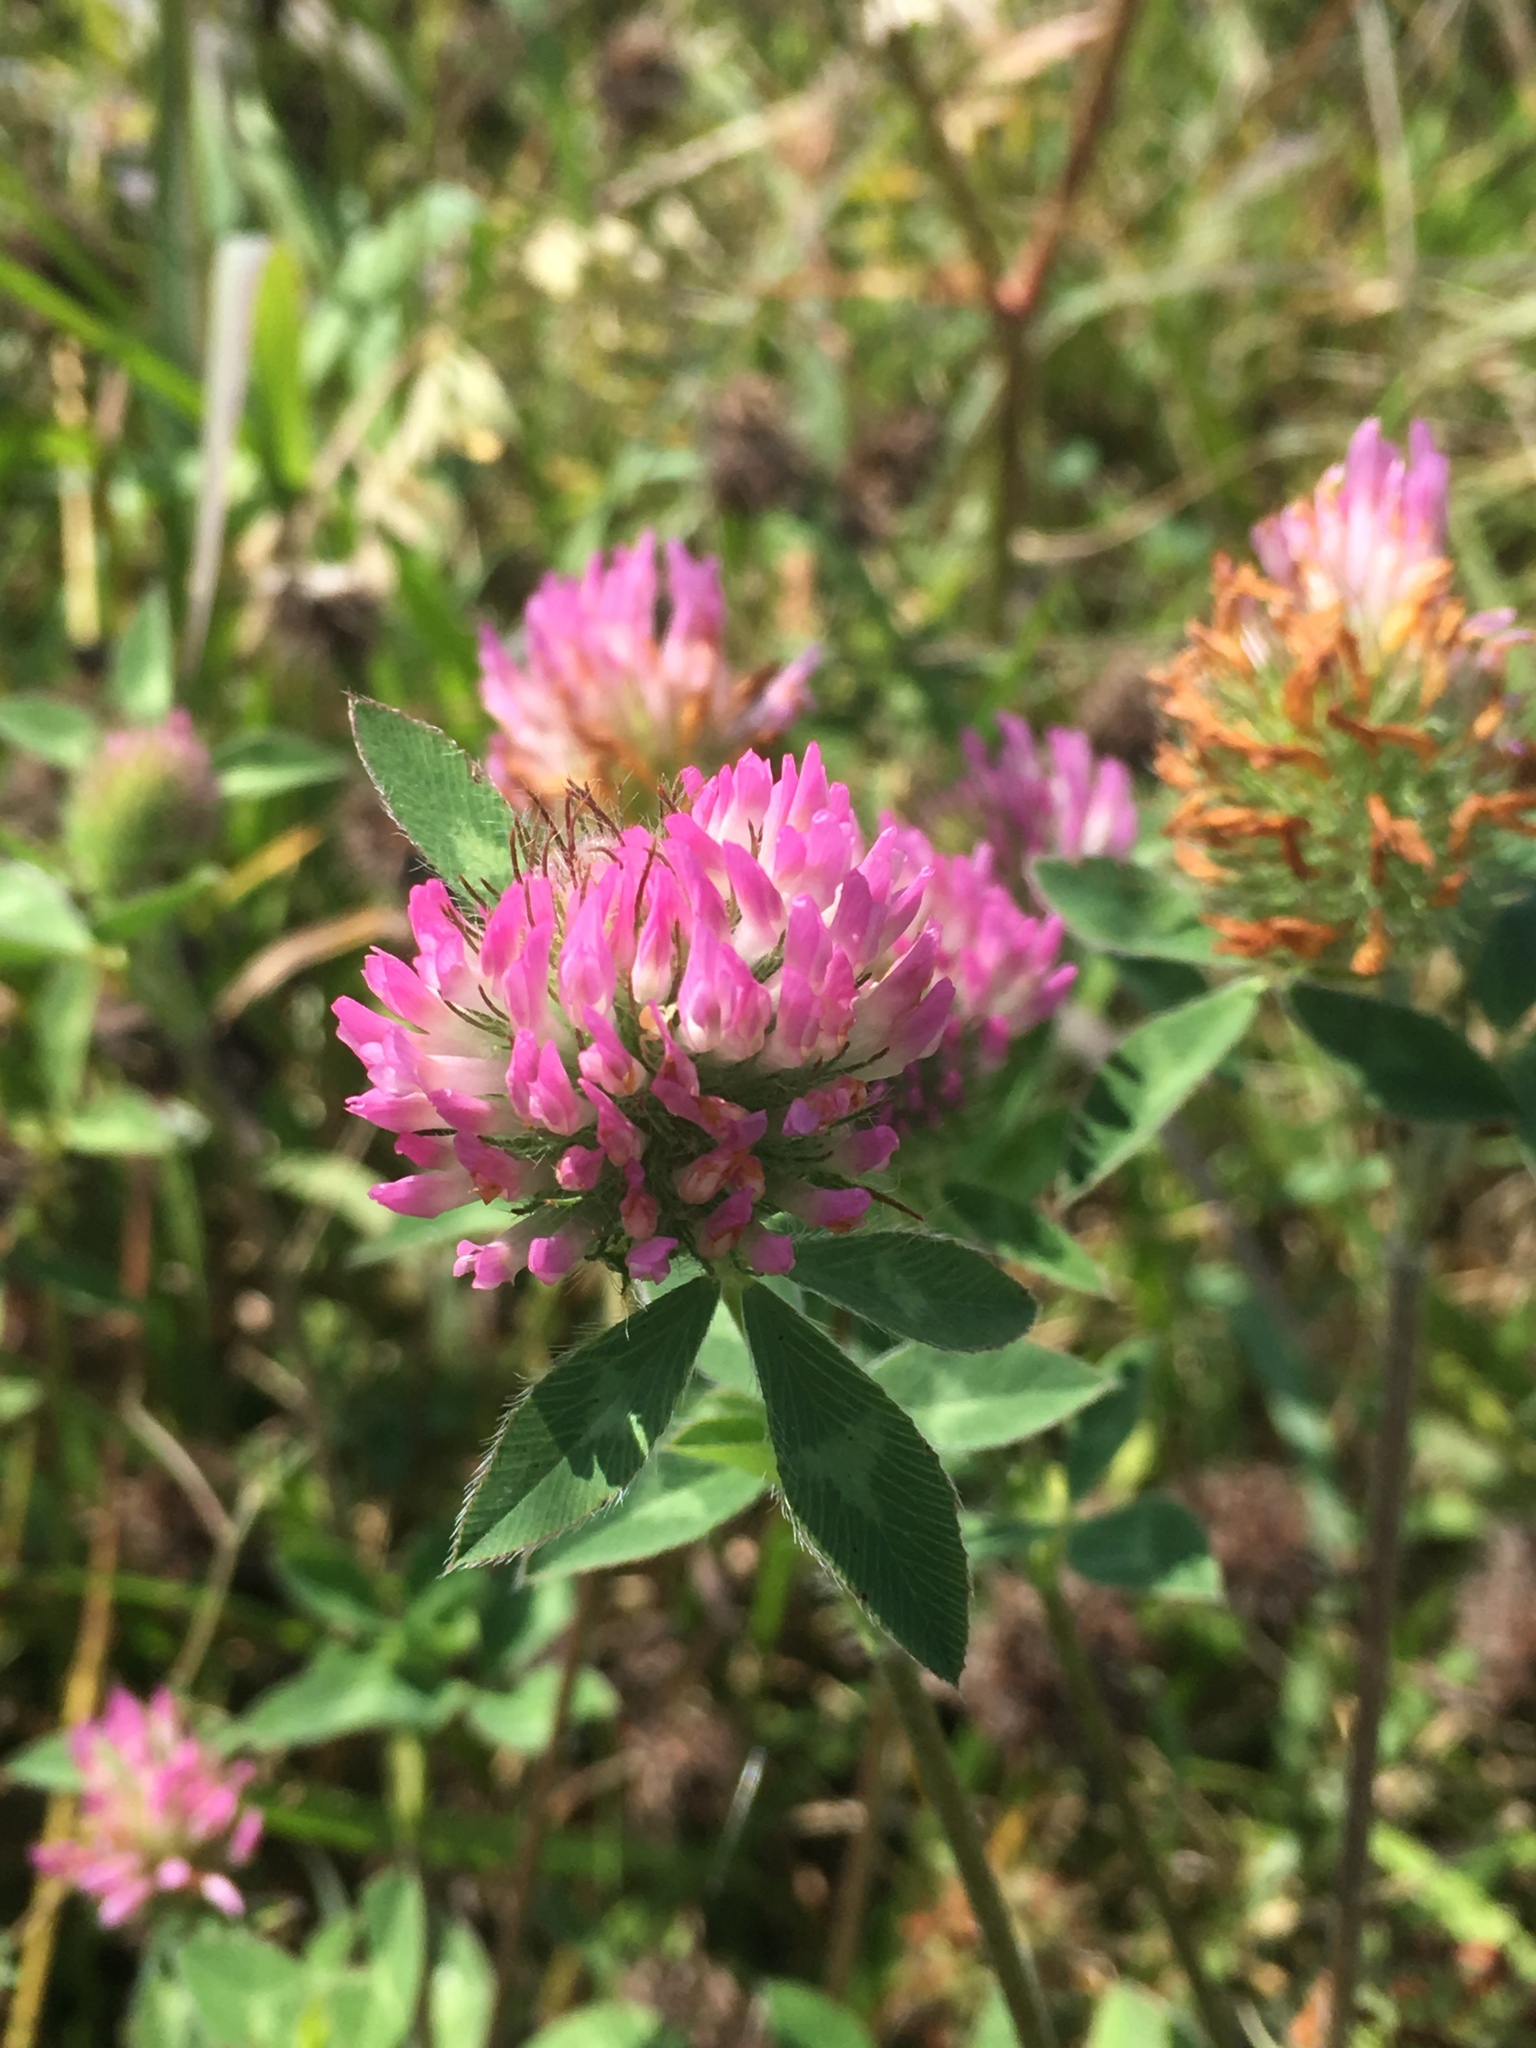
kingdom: Plantae
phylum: Tracheophyta
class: Magnoliopsida
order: Fabales
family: Fabaceae
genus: Trifolium
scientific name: Trifolium pratense
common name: Red clover
